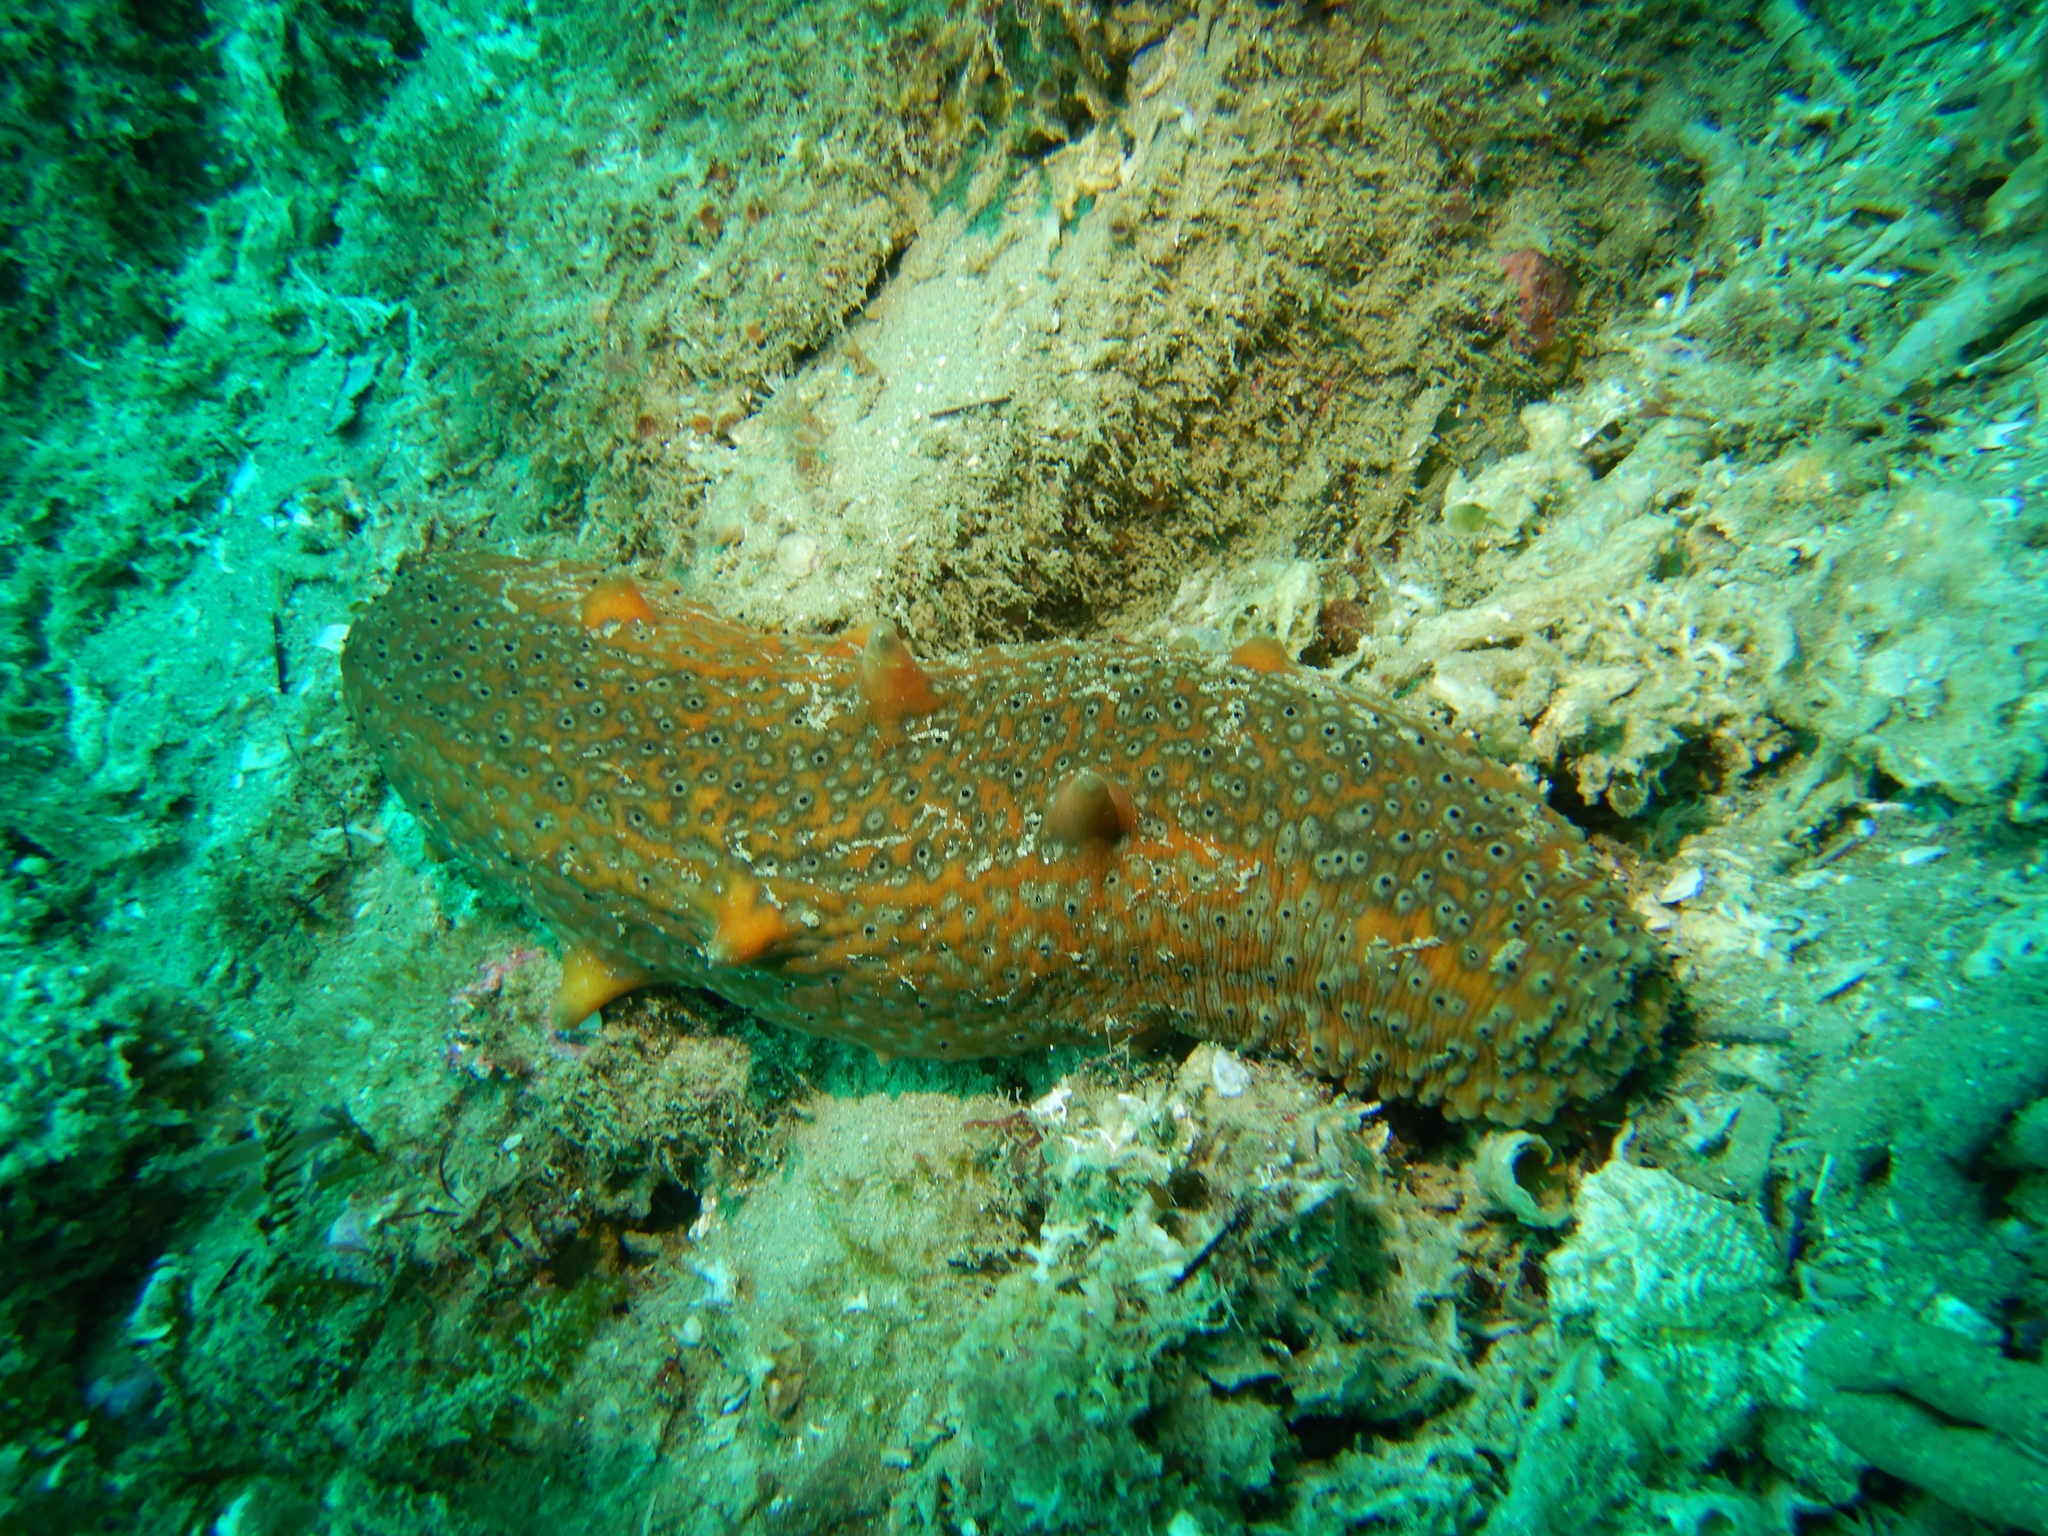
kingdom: Animalia
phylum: Echinodermata
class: Holothuroidea
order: Synallactida
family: Stichopodidae
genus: Apostichopus
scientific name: Apostichopus parvimensis
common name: Warty sea cucumber
